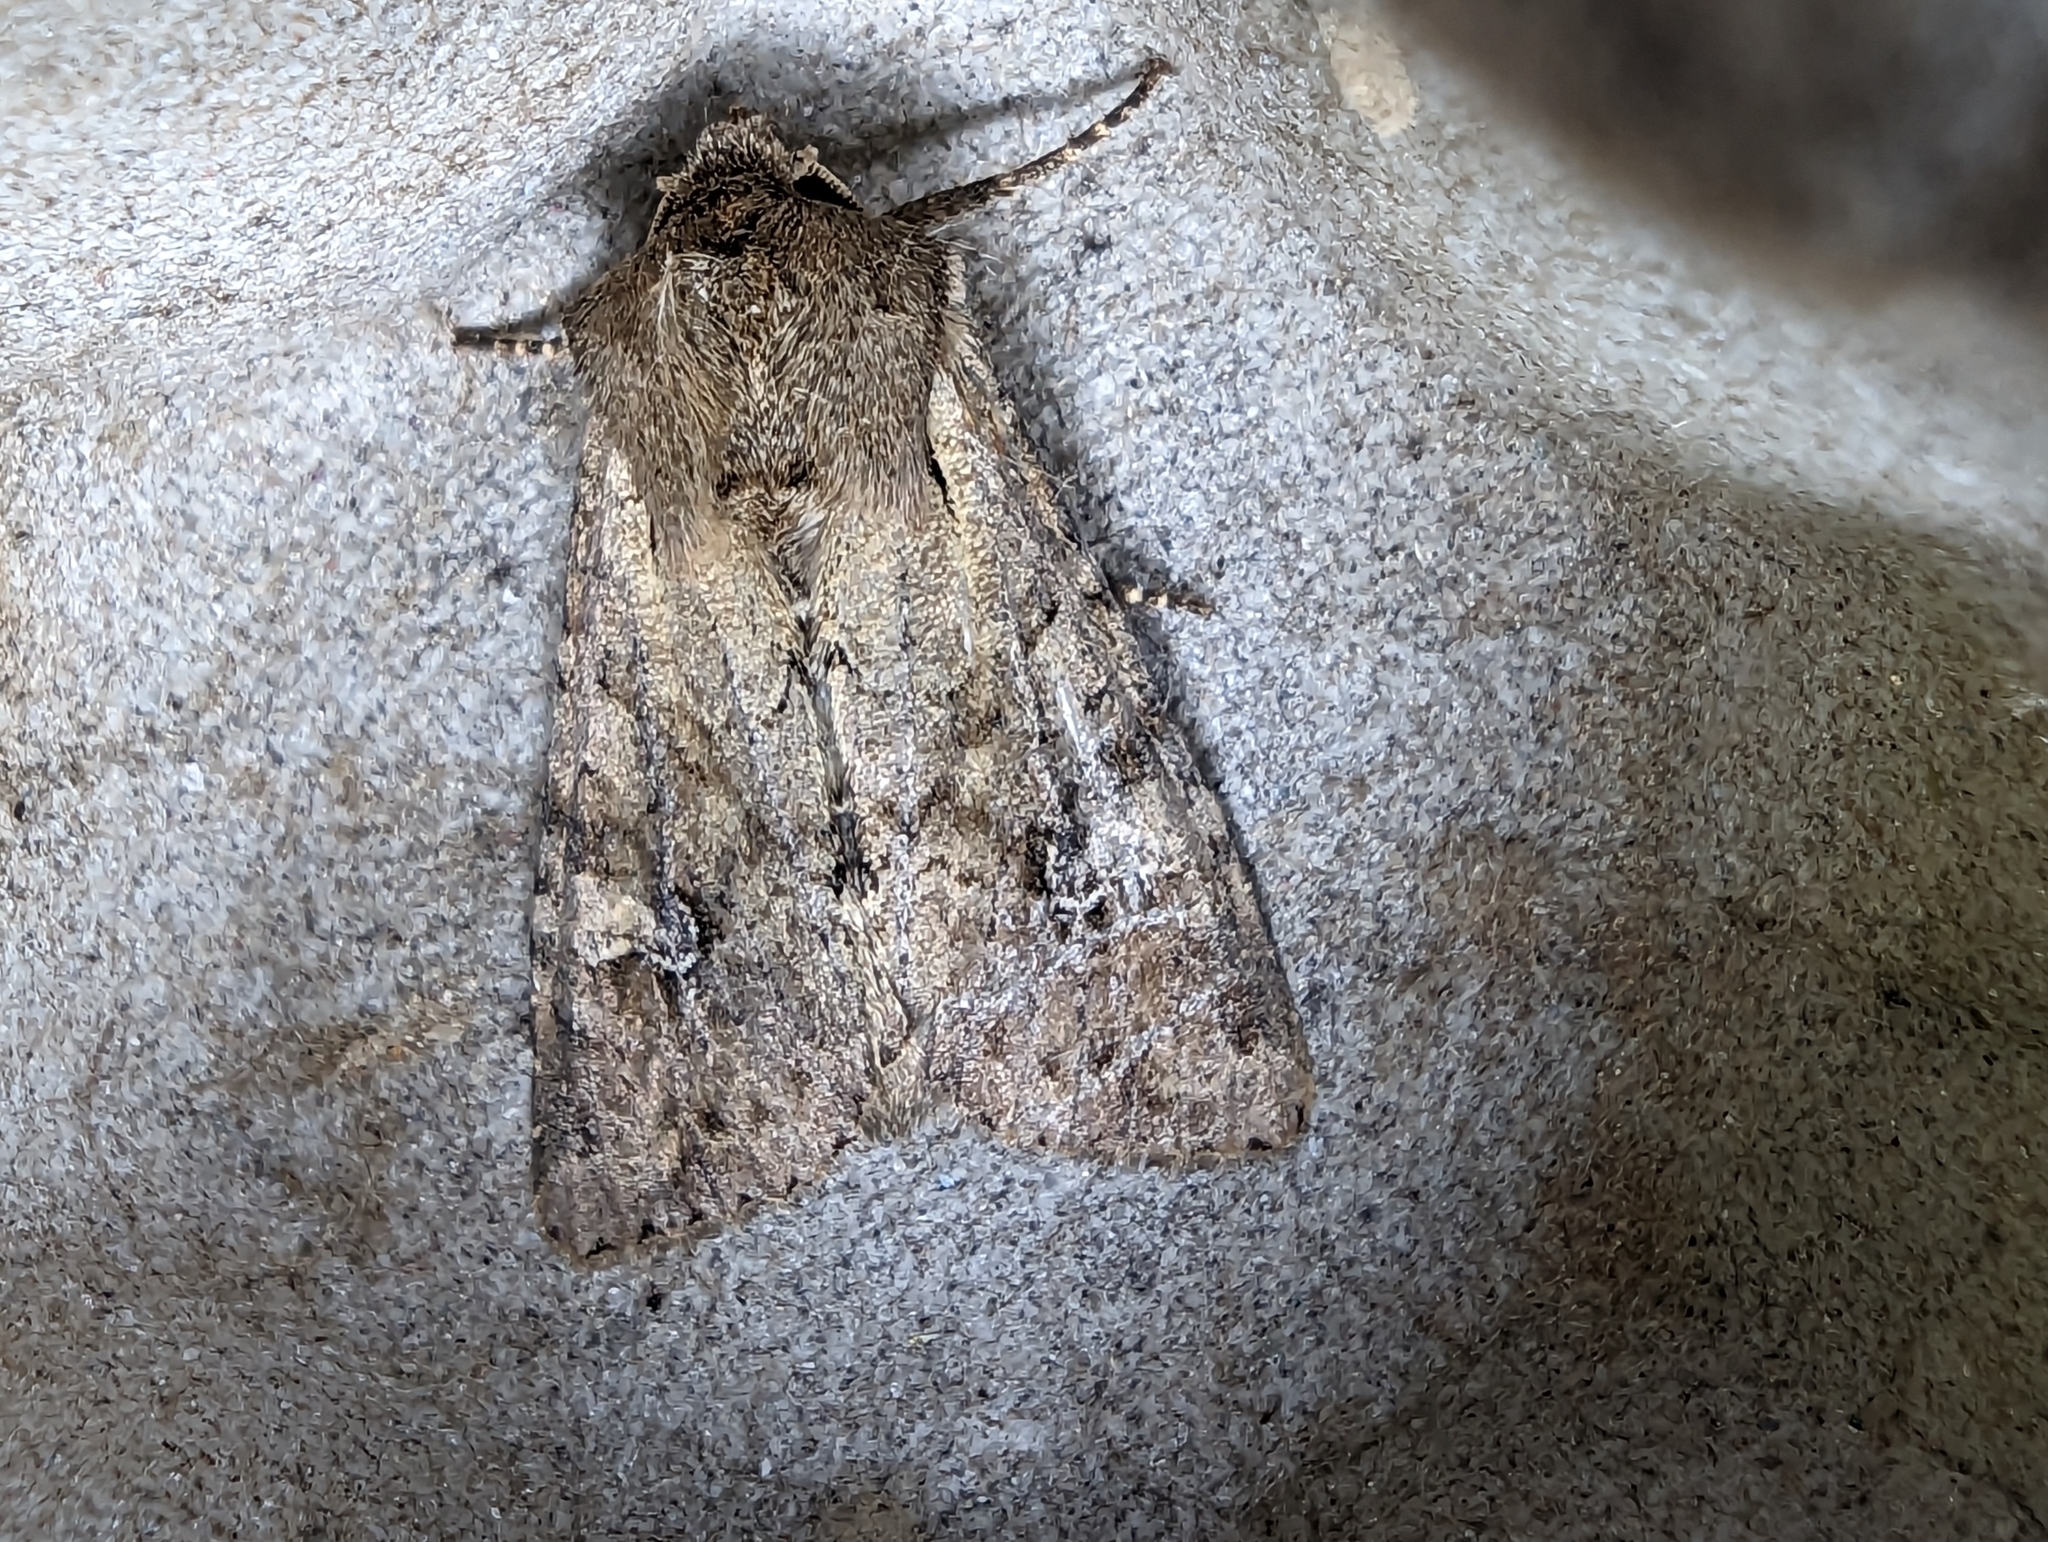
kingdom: Animalia
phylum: Arthropoda
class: Insecta
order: Lepidoptera
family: Noctuidae
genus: Apamea
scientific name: Apamea sordens
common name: Rustic shoulder-knot
